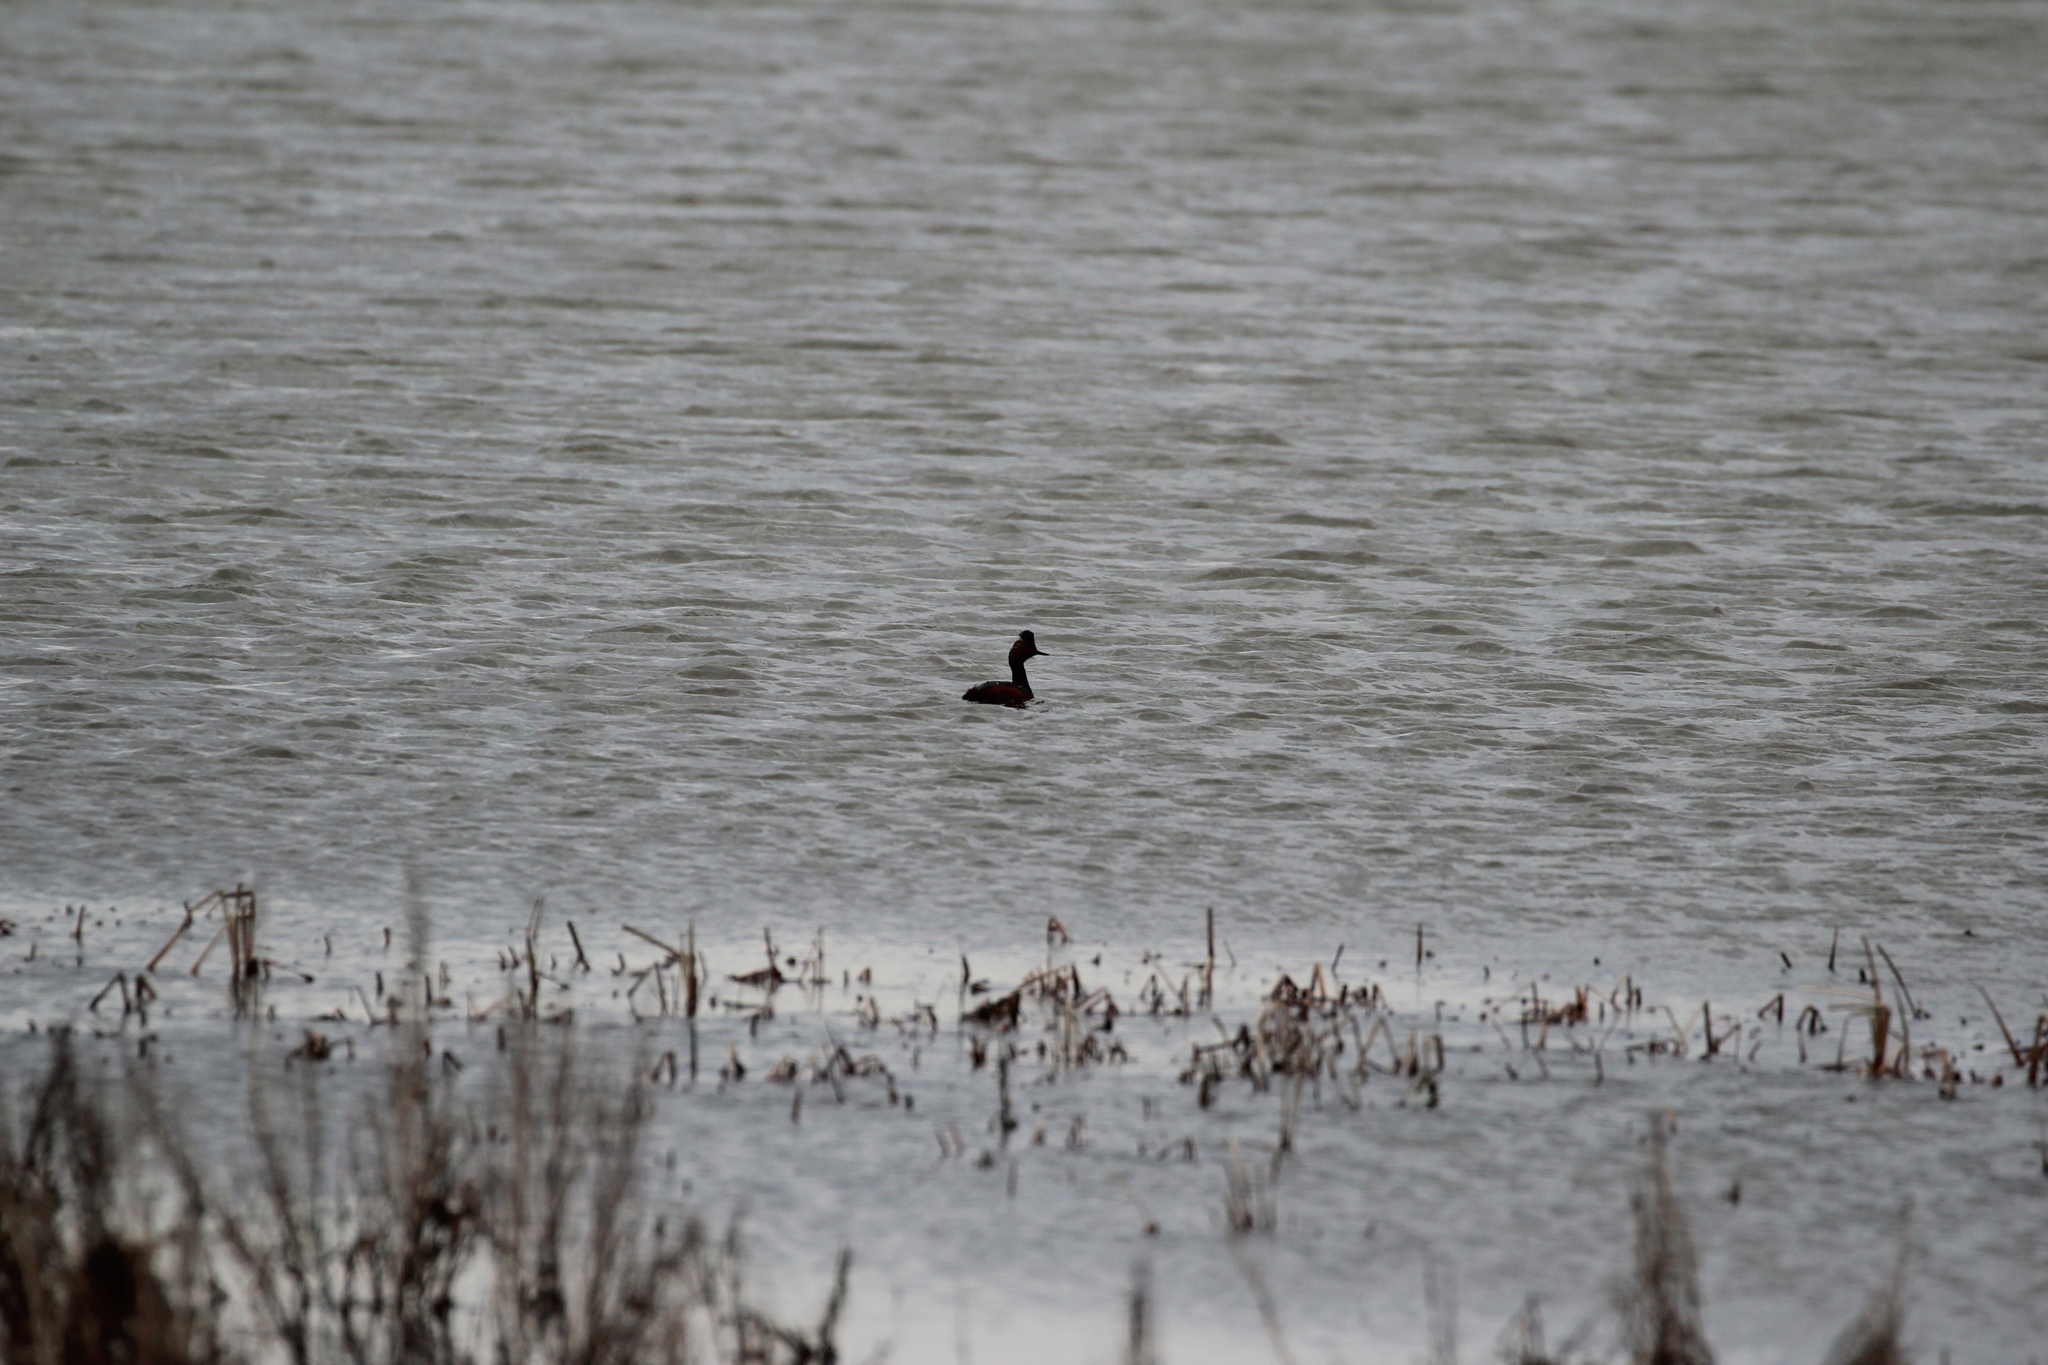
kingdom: Animalia
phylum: Chordata
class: Aves
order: Podicipediformes
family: Podicipedidae
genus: Podiceps
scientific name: Podiceps nigricollis
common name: Black-necked grebe
